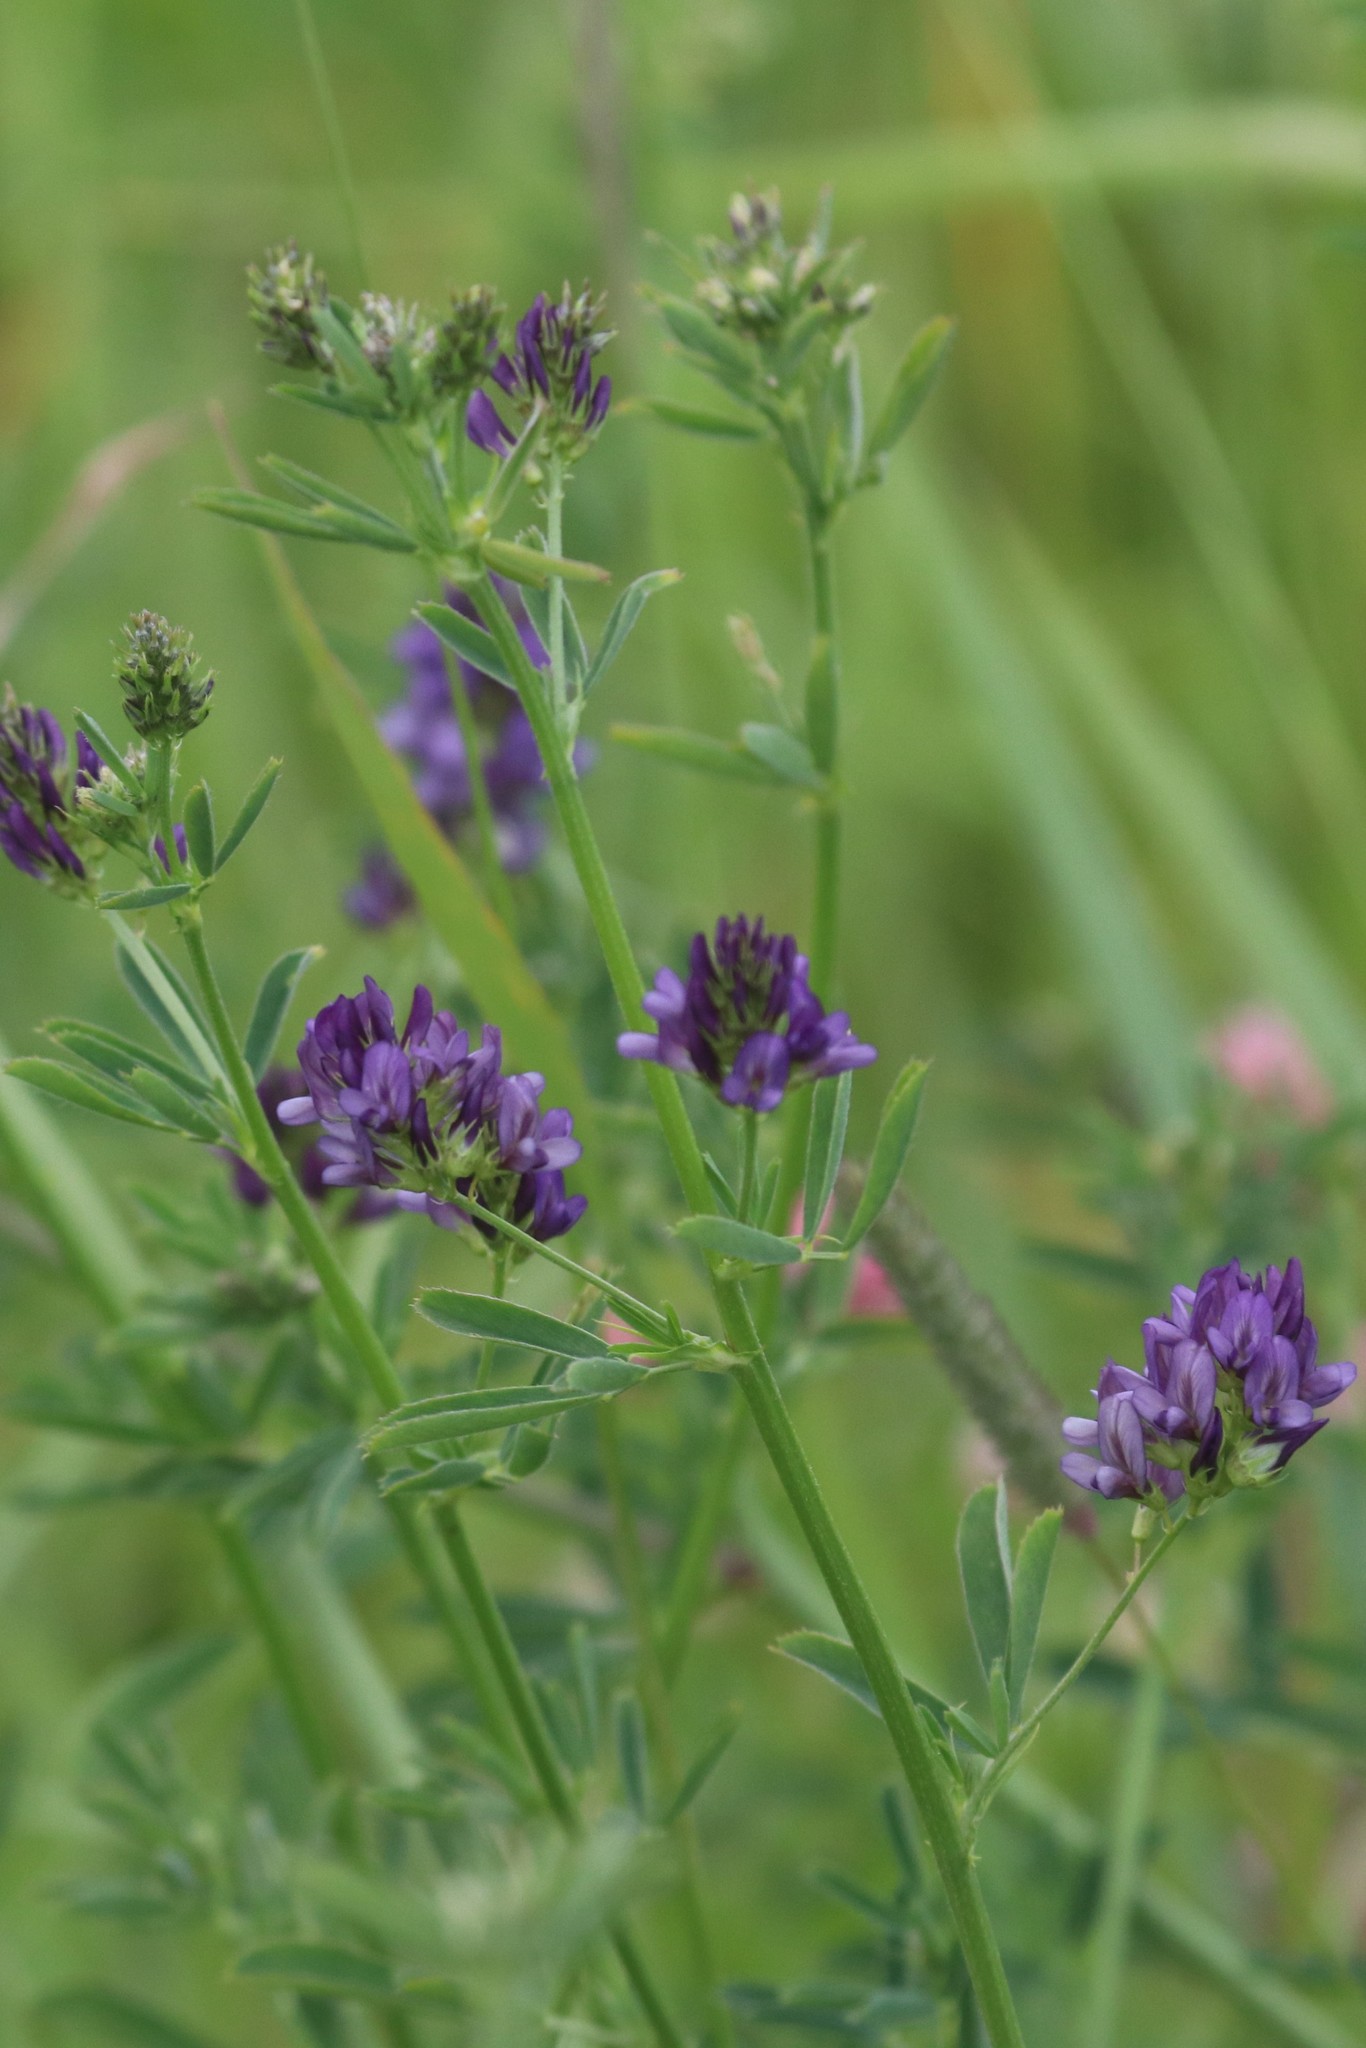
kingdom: Plantae
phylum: Tracheophyta
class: Magnoliopsida
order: Fabales
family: Fabaceae
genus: Medicago
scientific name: Medicago sativa
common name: Alfalfa
